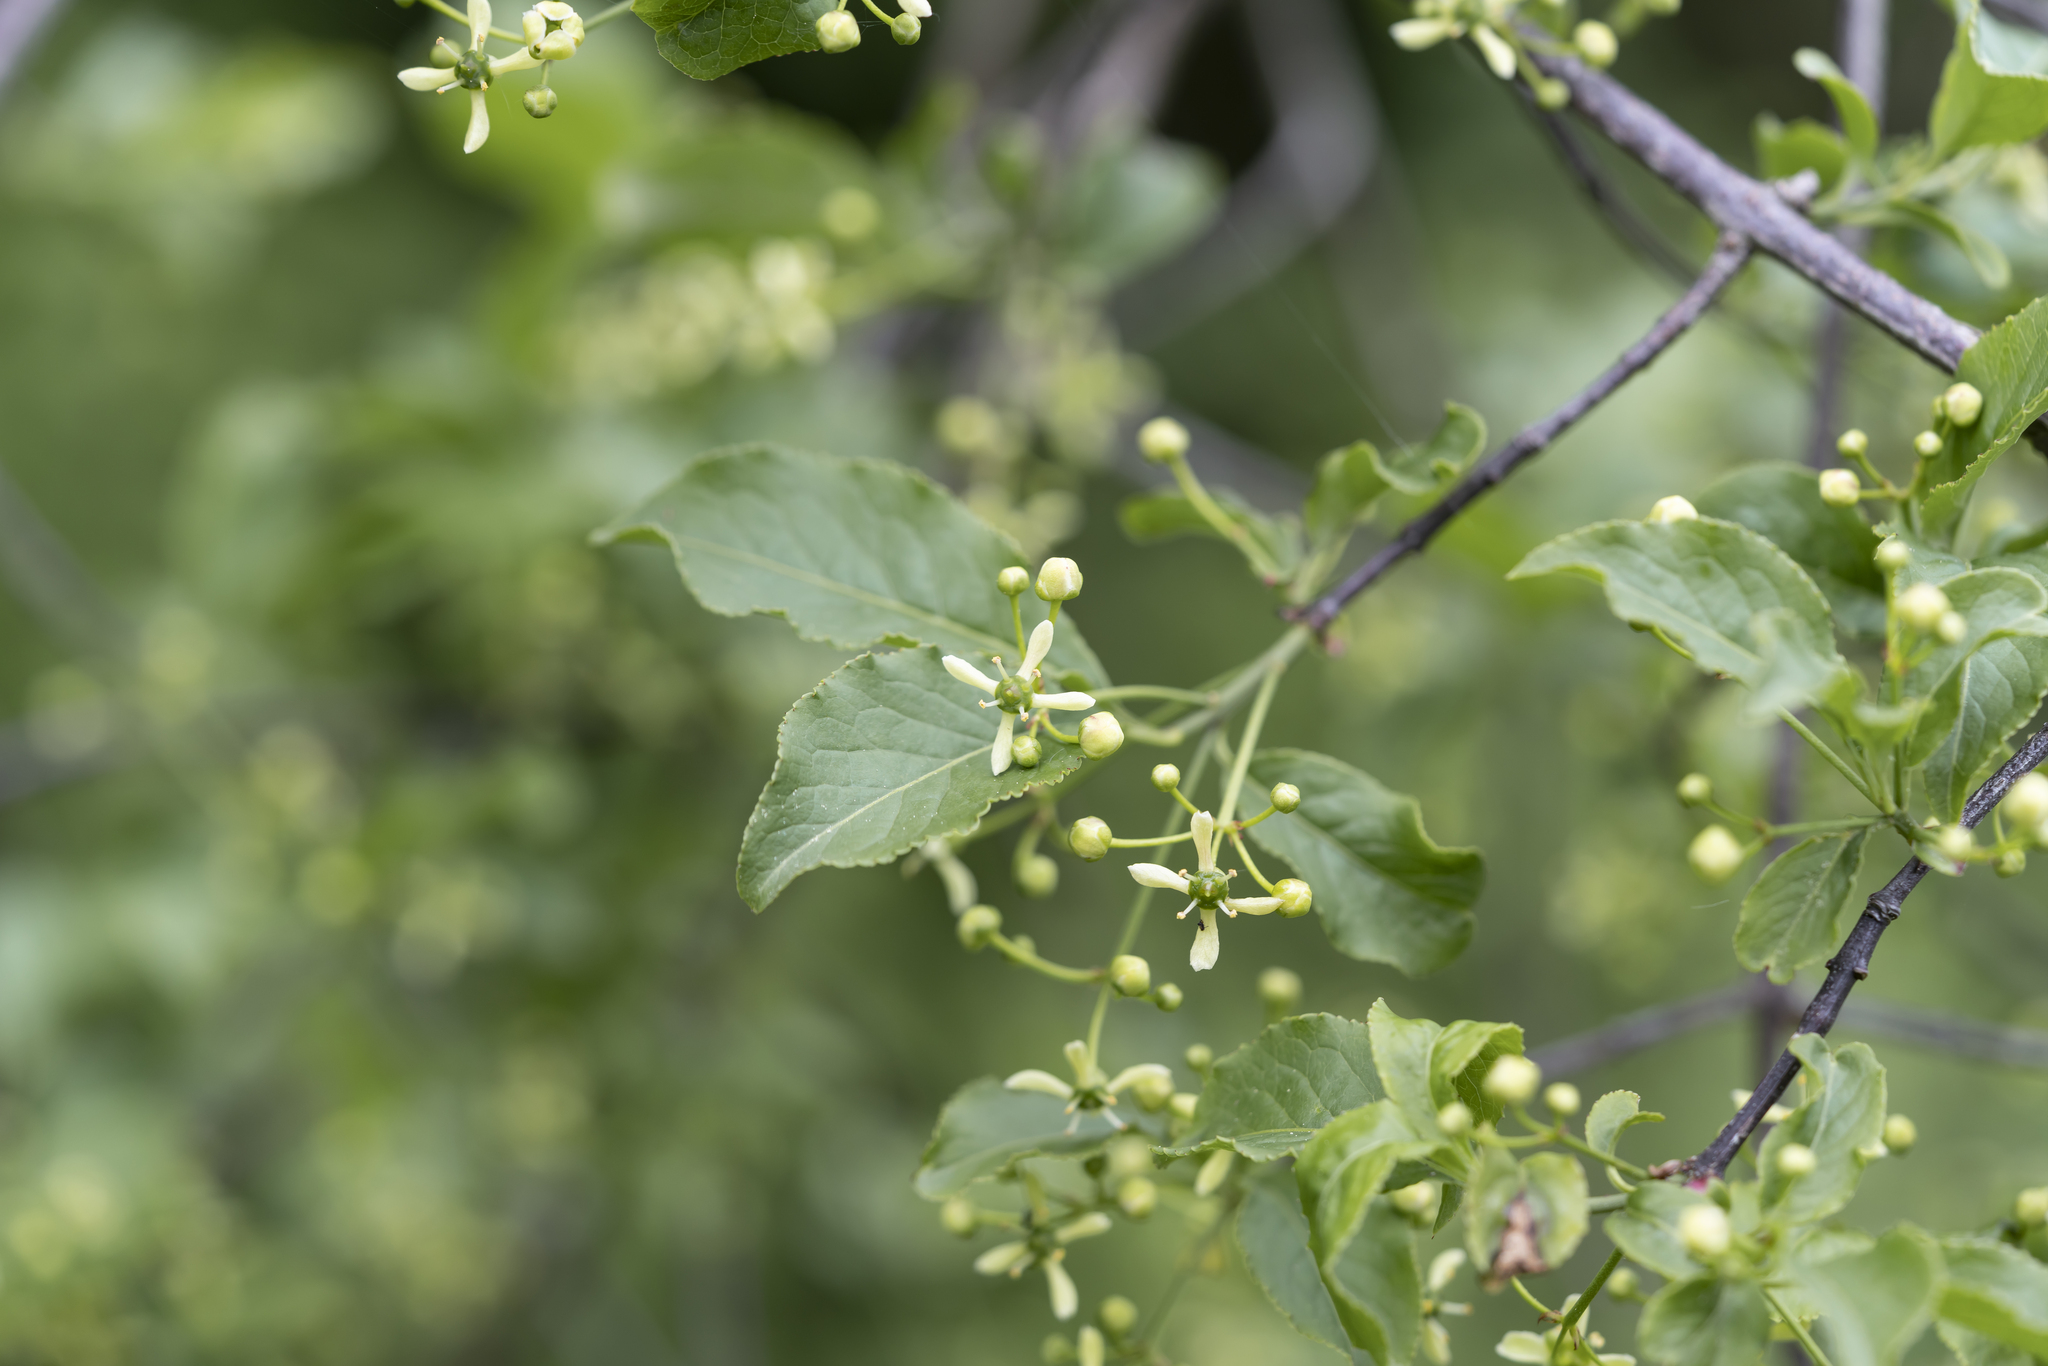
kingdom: Plantae
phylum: Tracheophyta
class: Magnoliopsida
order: Celastrales
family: Celastraceae
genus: Euonymus
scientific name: Euonymus europaeus
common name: Spindle
